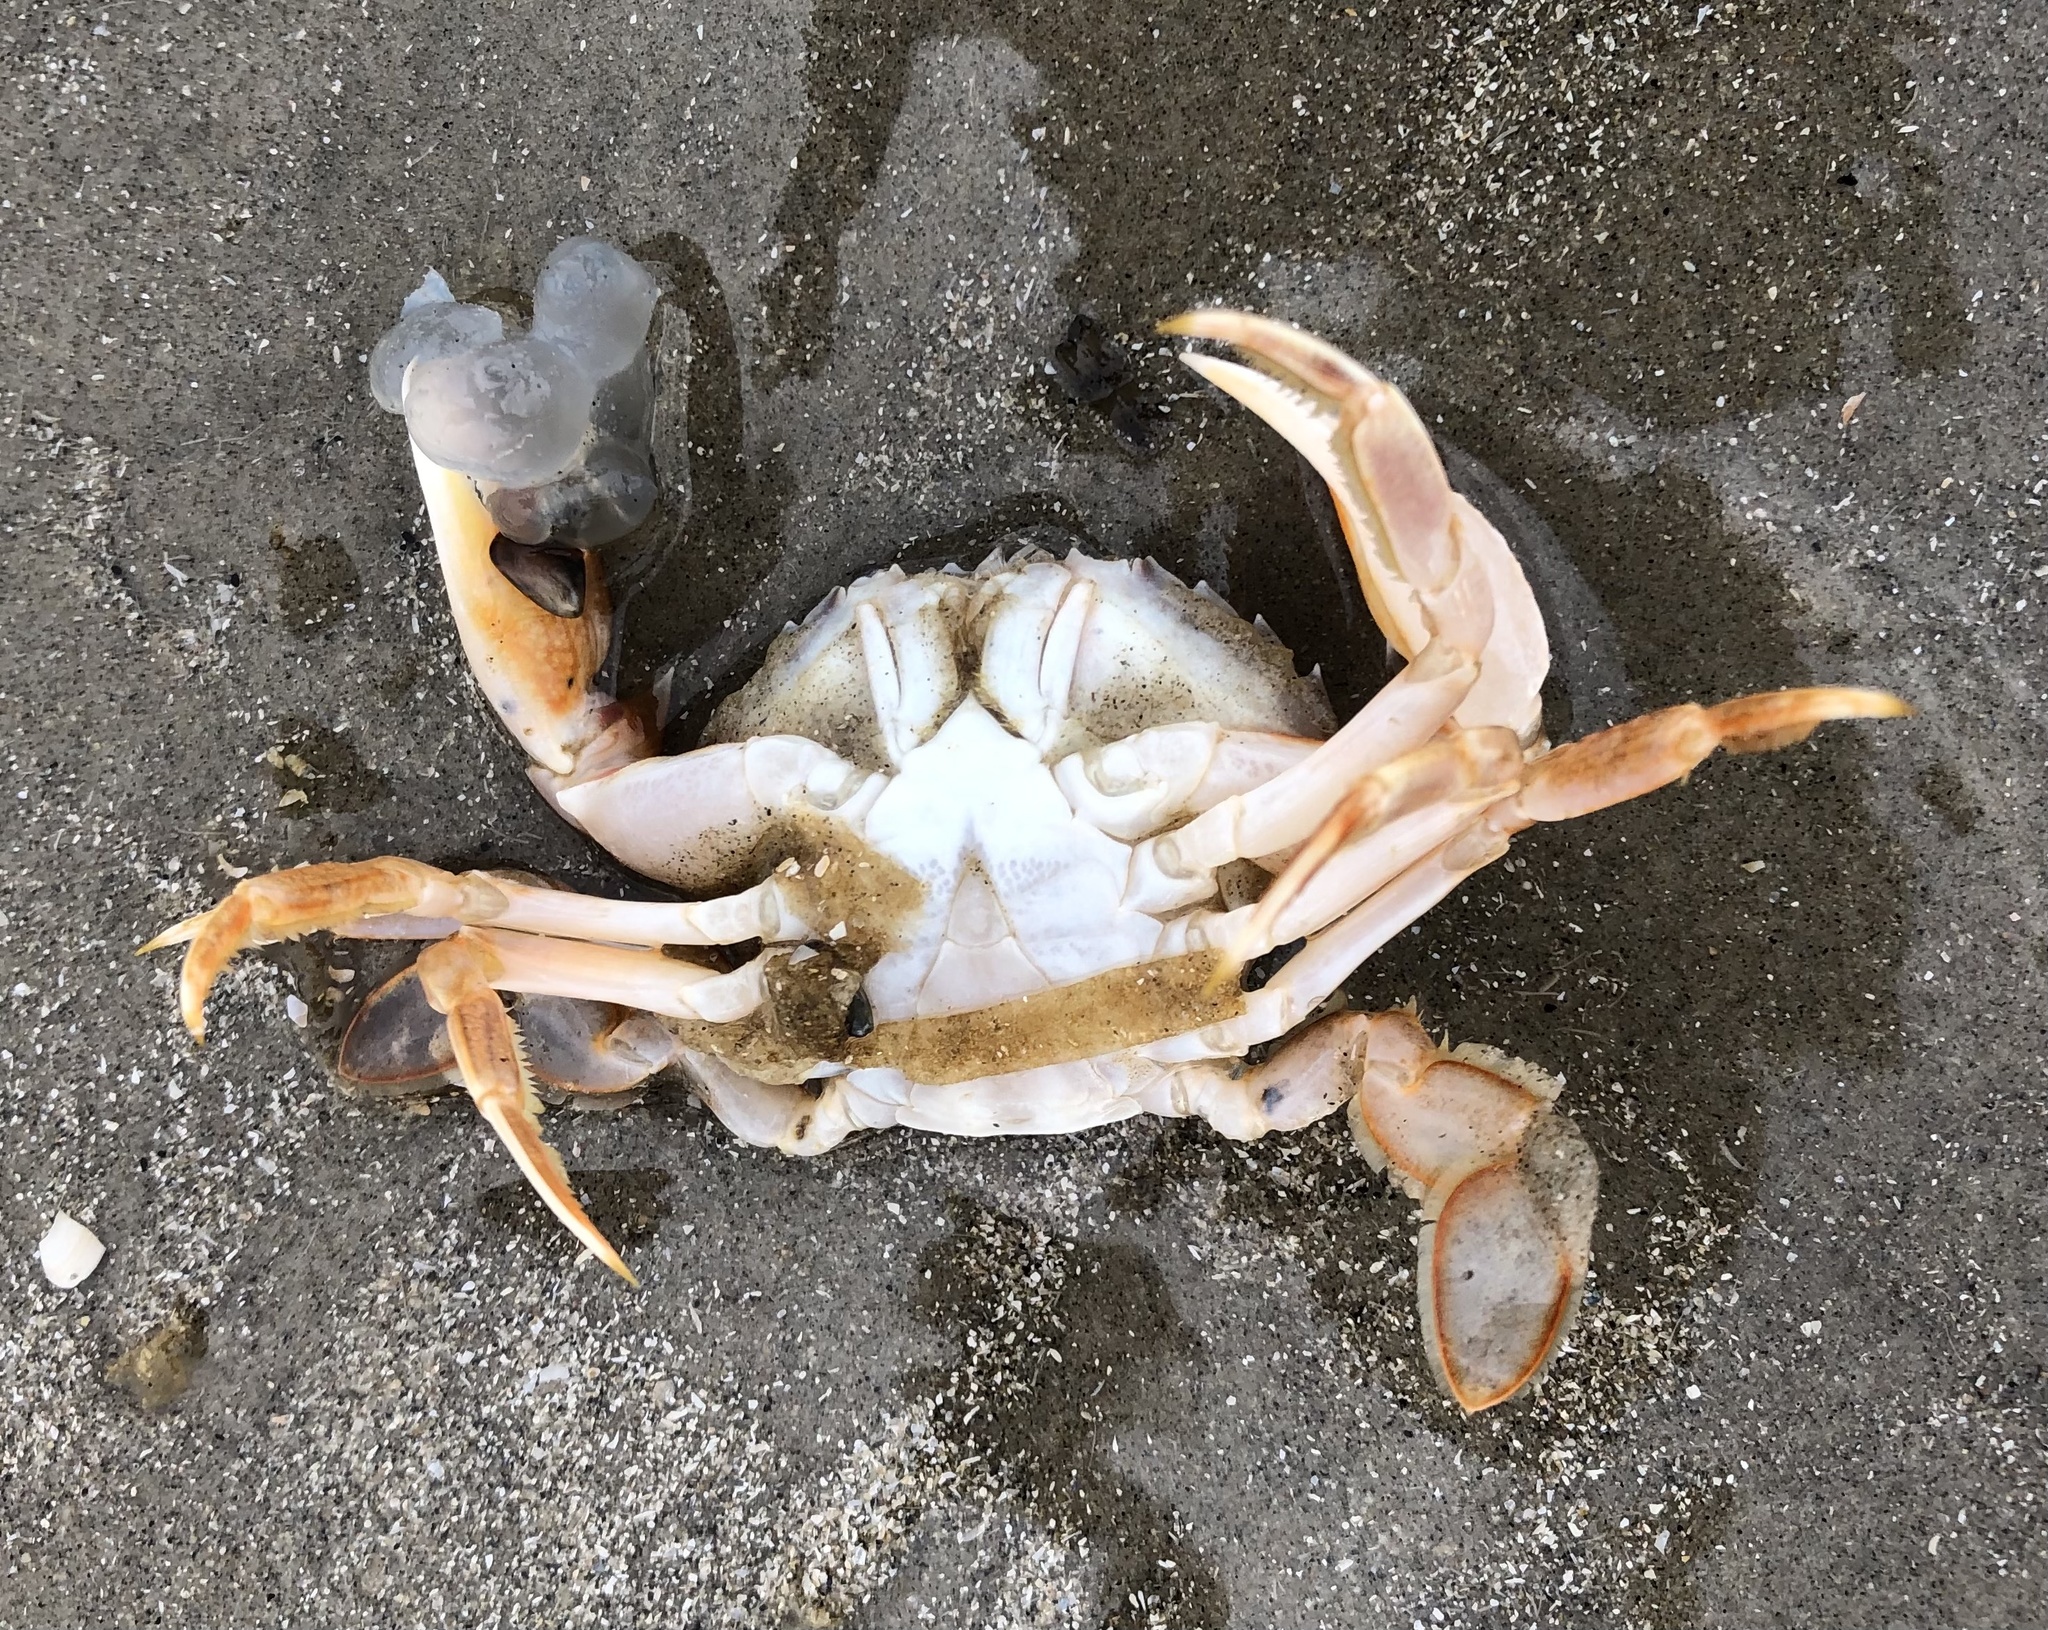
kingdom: Animalia
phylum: Arthropoda
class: Malacostraca
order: Decapoda
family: Polybiidae
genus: Liocarcinus
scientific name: Liocarcinus holsatus
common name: Flying crab
